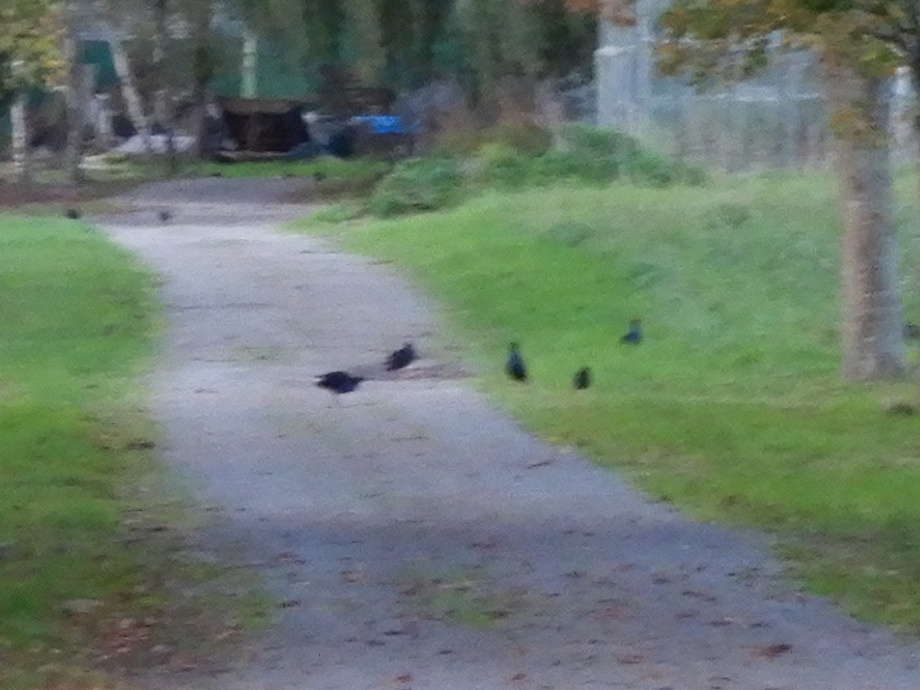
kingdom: Animalia
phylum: Chordata
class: Aves
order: Gruiformes
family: Rallidae
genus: Porphyrio
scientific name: Porphyrio melanotus
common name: Australasian swamphen
